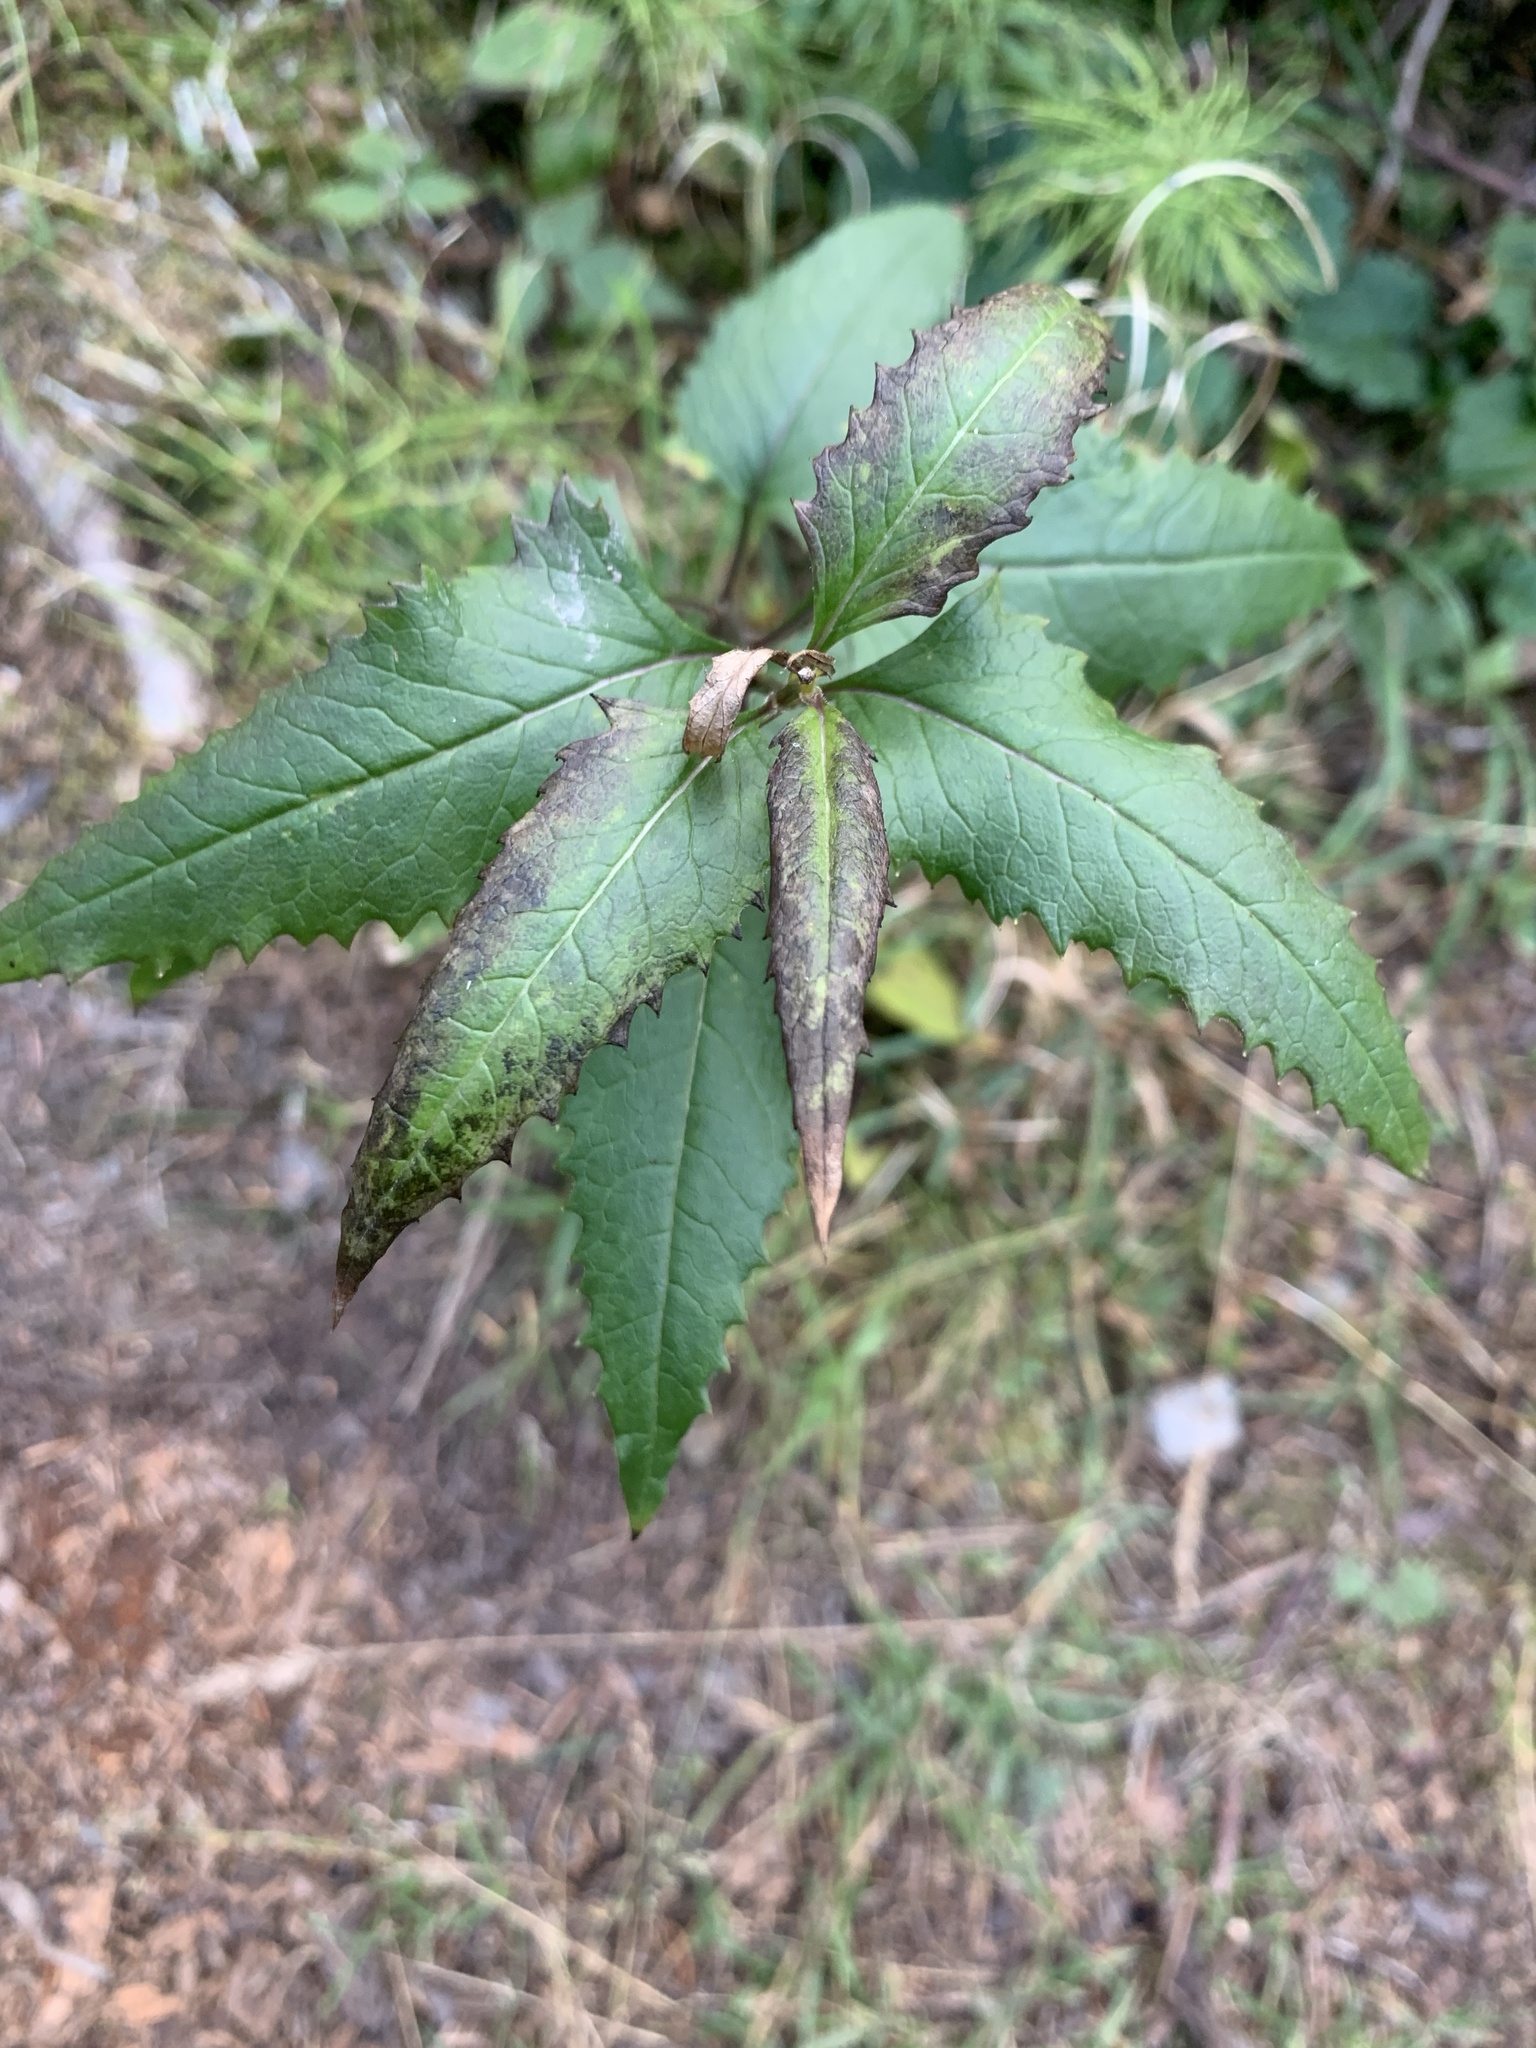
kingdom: Plantae
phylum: Tracheophyta
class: Magnoliopsida
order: Asterales
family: Asteraceae
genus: Senecio
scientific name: Senecio triangularis
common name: Arrowleaf butterweed
